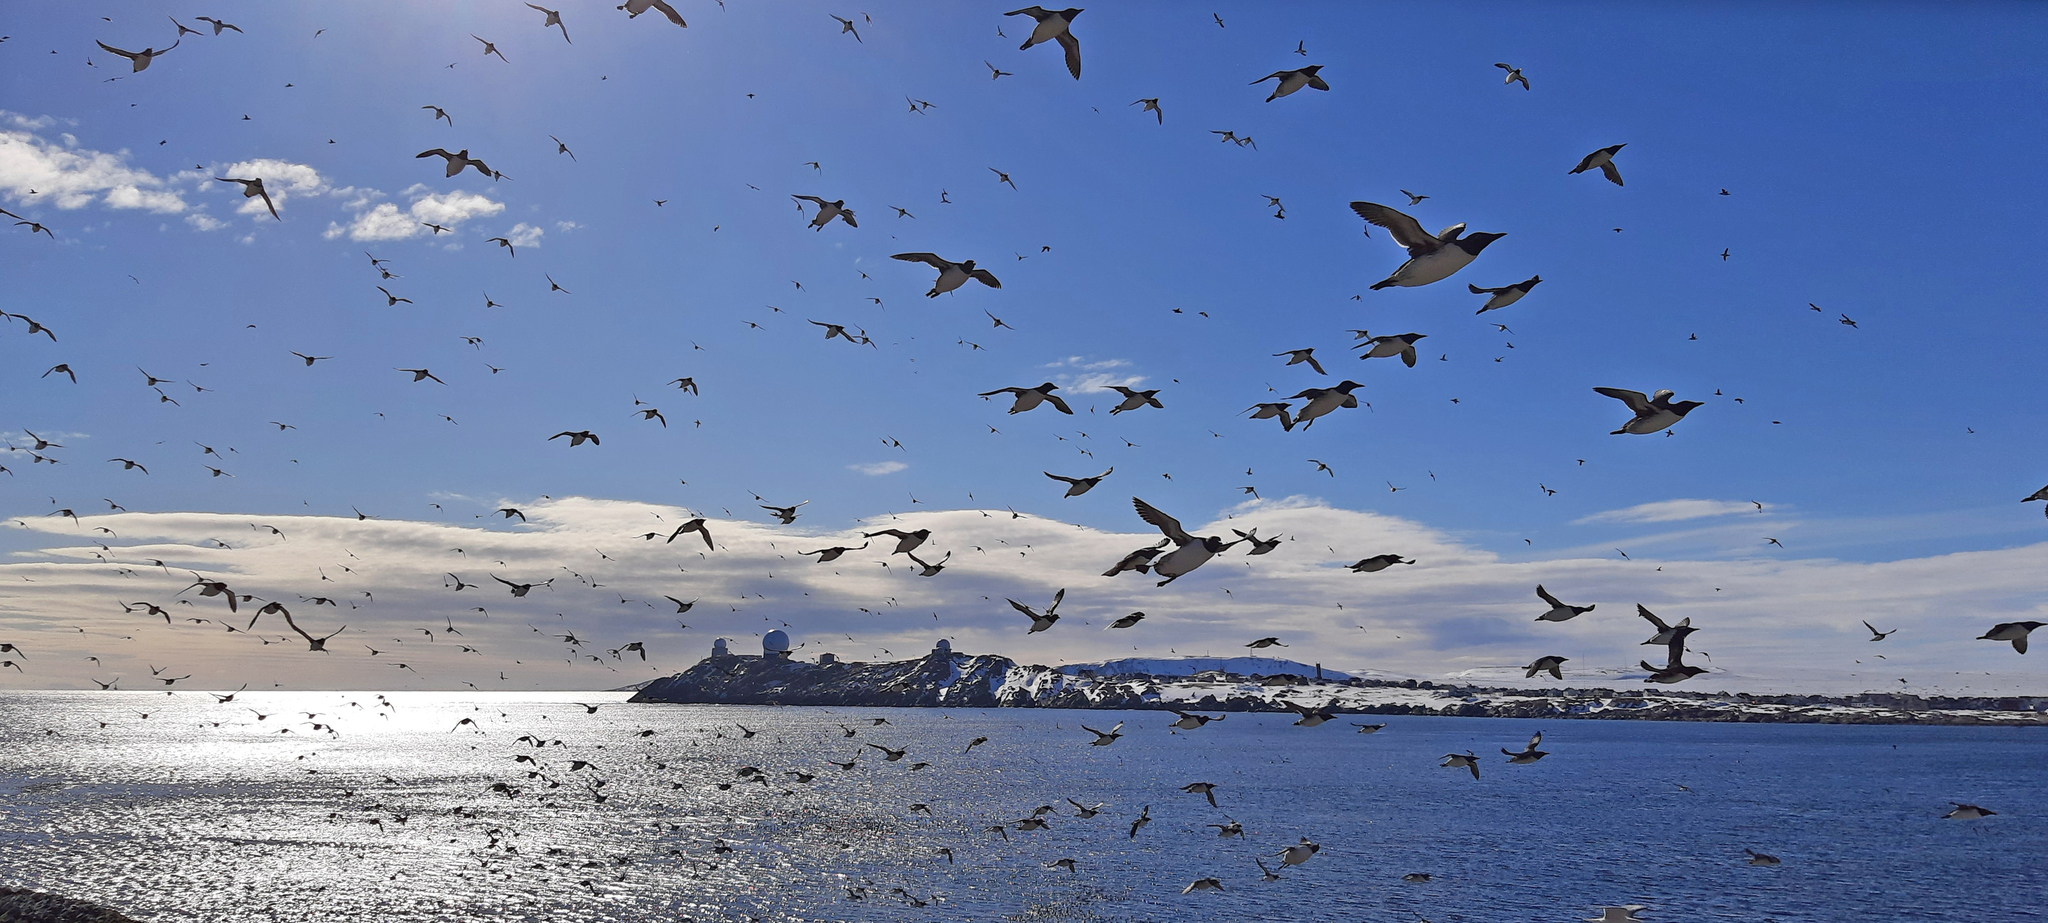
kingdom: Animalia
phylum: Chordata
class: Aves
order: Charadriiformes
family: Alcidae
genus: Uria
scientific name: Uria aalge
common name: Common murre
